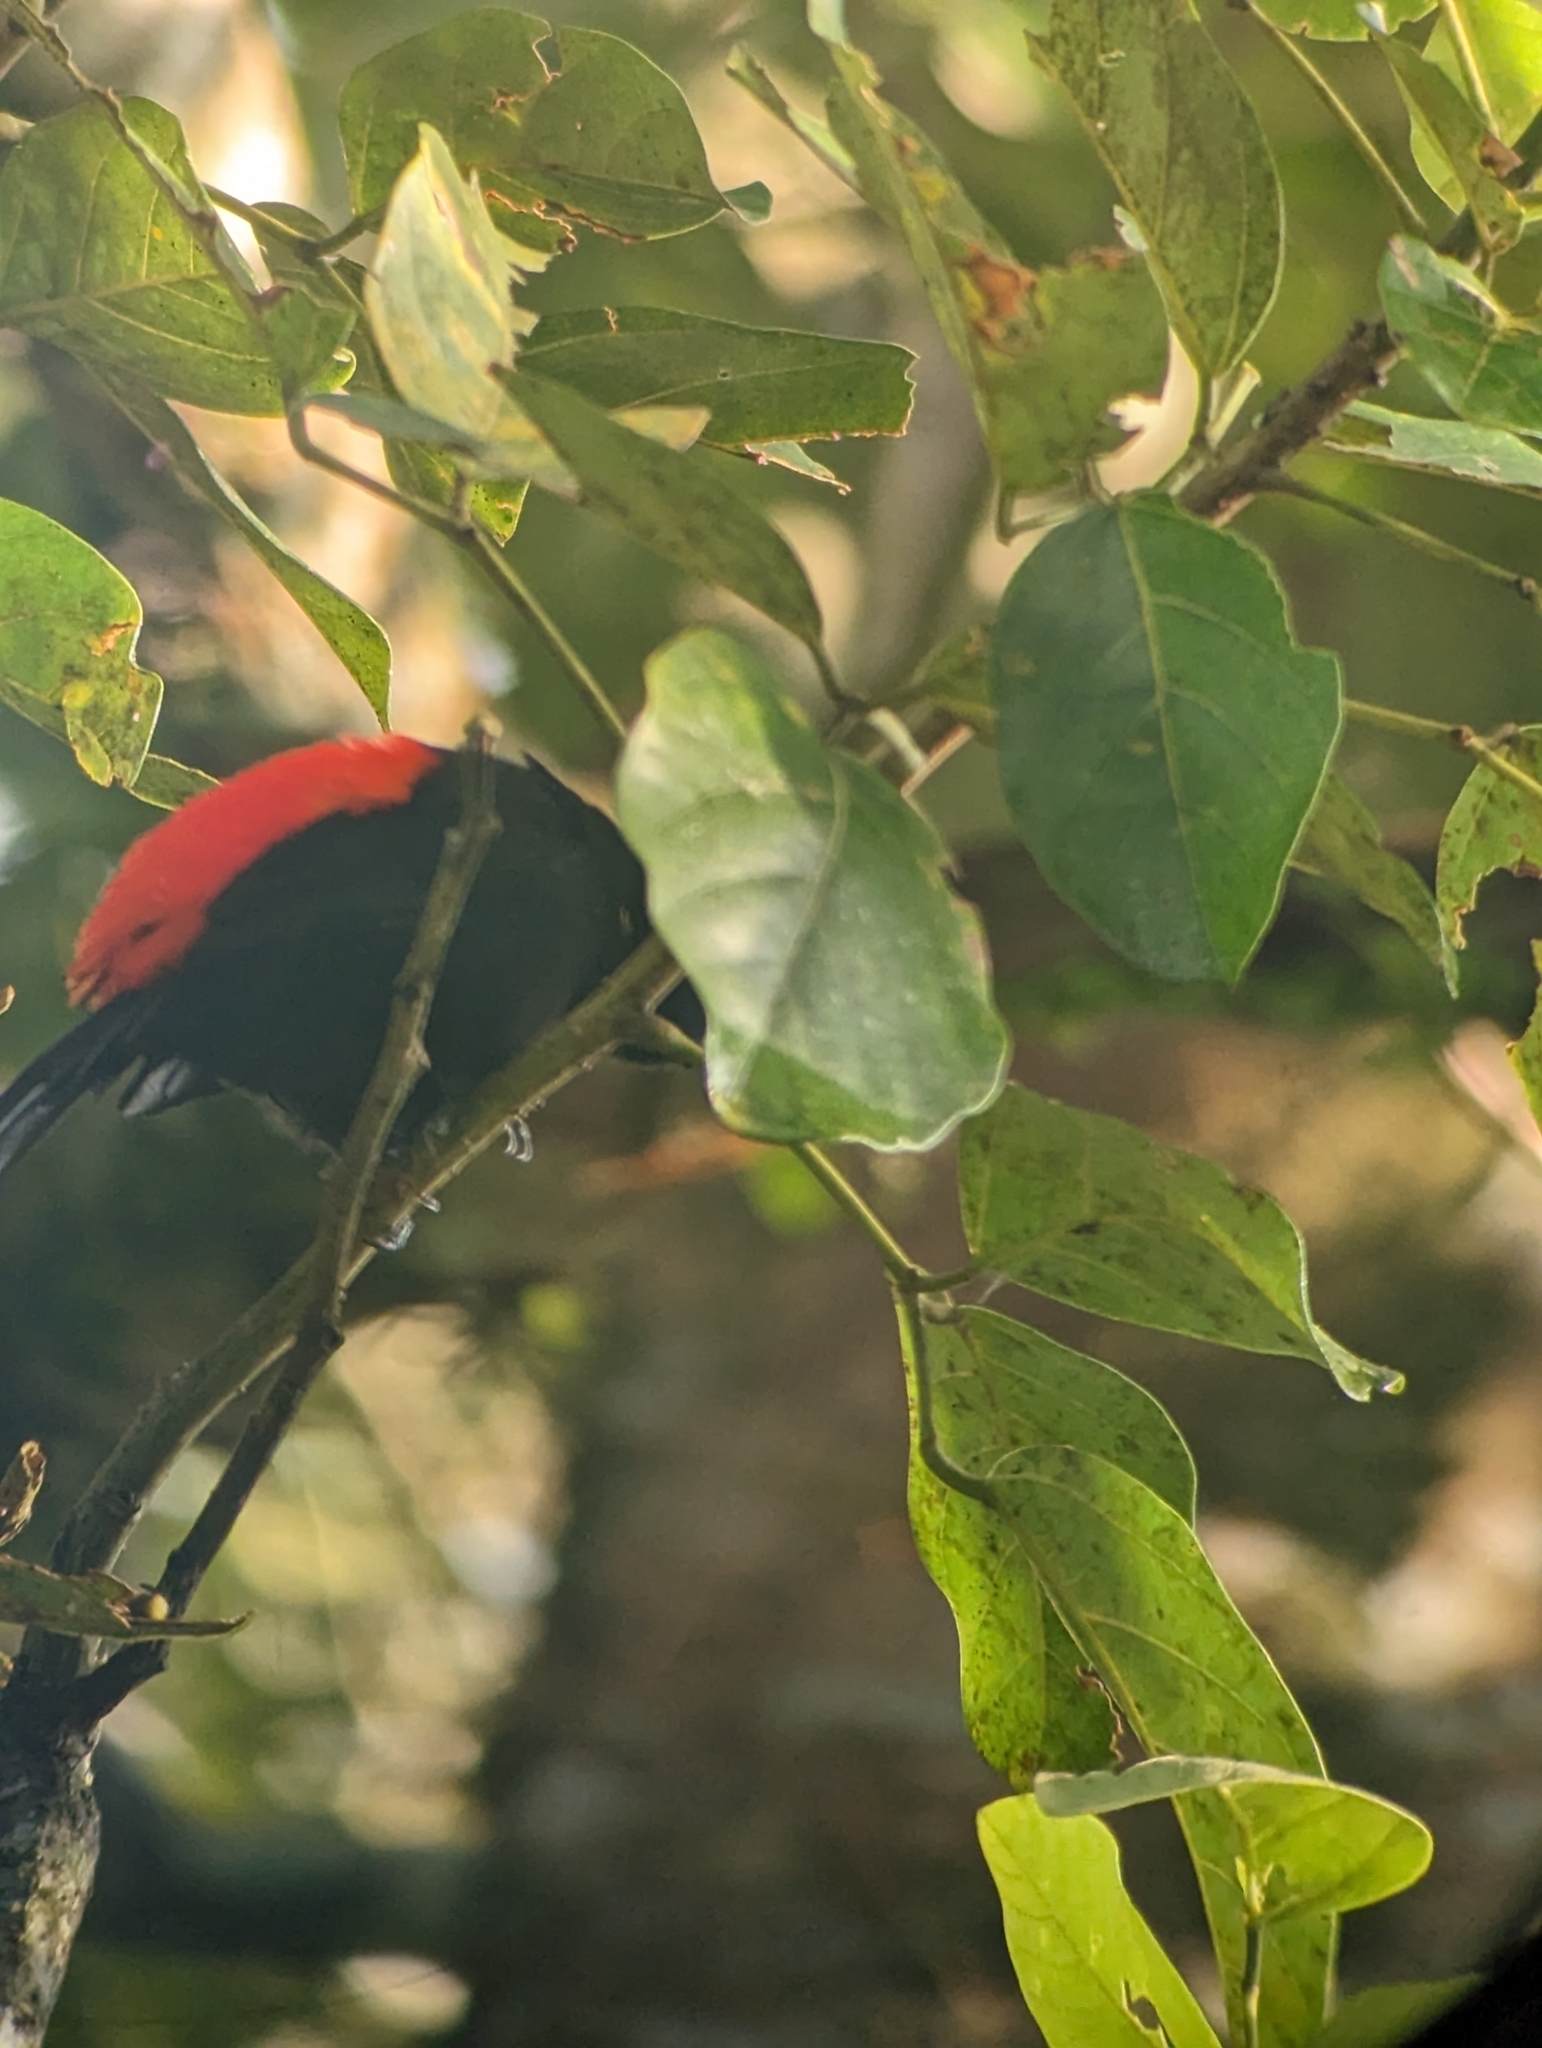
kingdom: Animalia
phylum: Chordata
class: Aves
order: Passeriformes
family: Thraupidae
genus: Ramphocelus
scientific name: Ramphocelus passerinii
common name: Passerini's tanager
